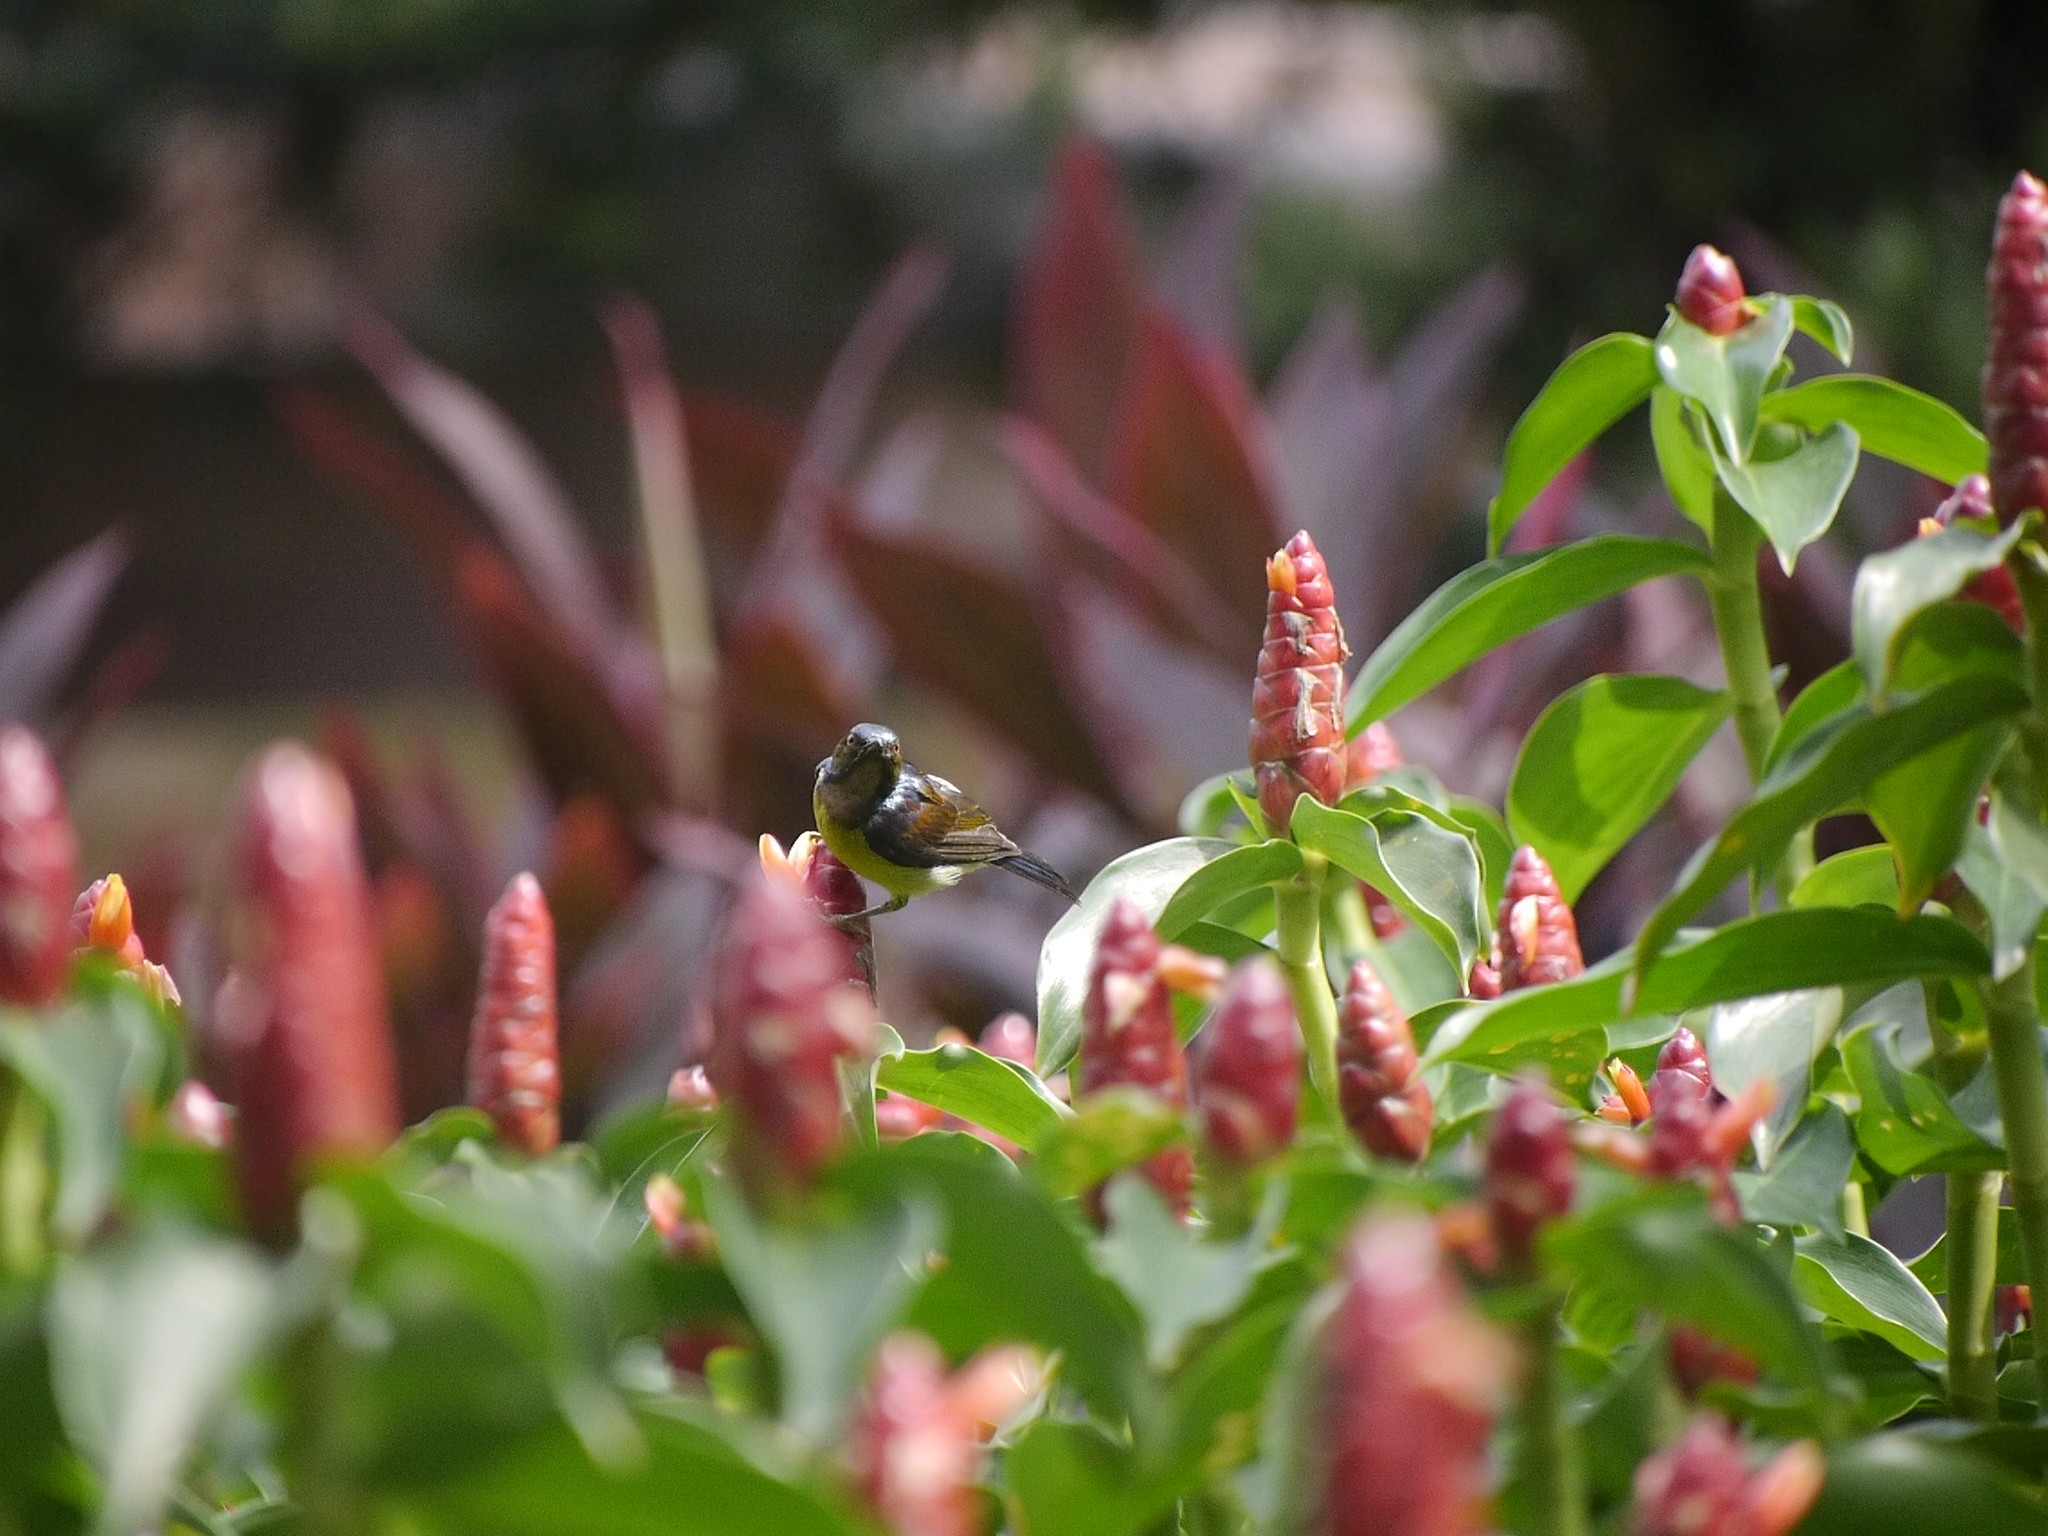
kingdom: Animalia
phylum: Chordata
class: Aves
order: Passeriformes
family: Nectariniidae
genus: Anthreptes
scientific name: Anthreptes malacensis
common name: Brown-throated sunbird
